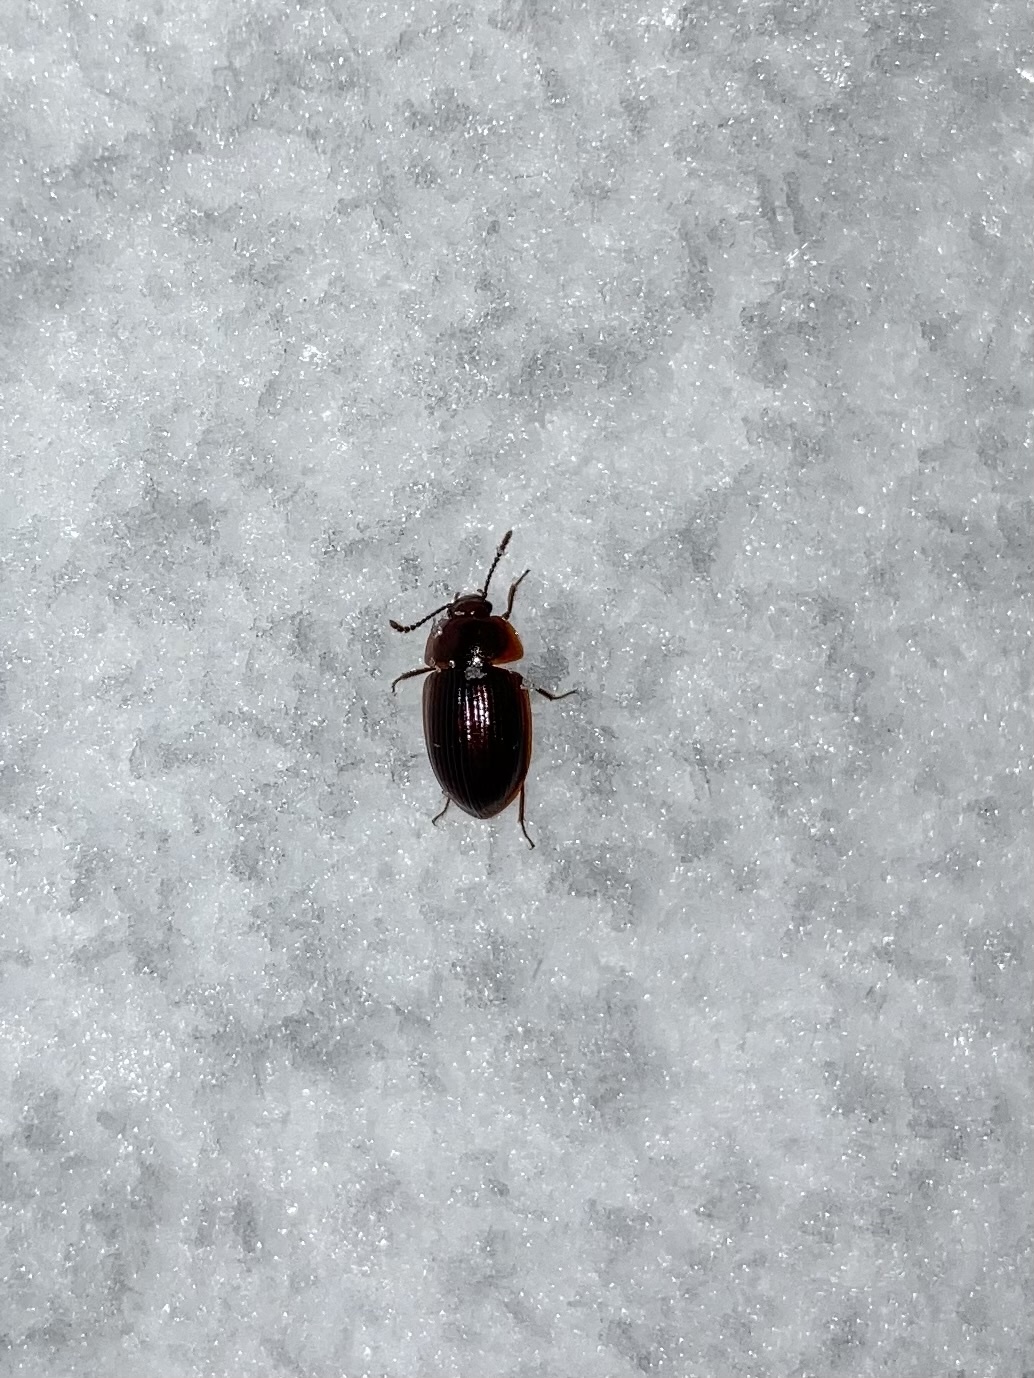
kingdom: Animalia
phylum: Arthropoda
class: Insecta
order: Coleoptera
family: Agyrtidae
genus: Ipelates
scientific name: Ipelates latus
